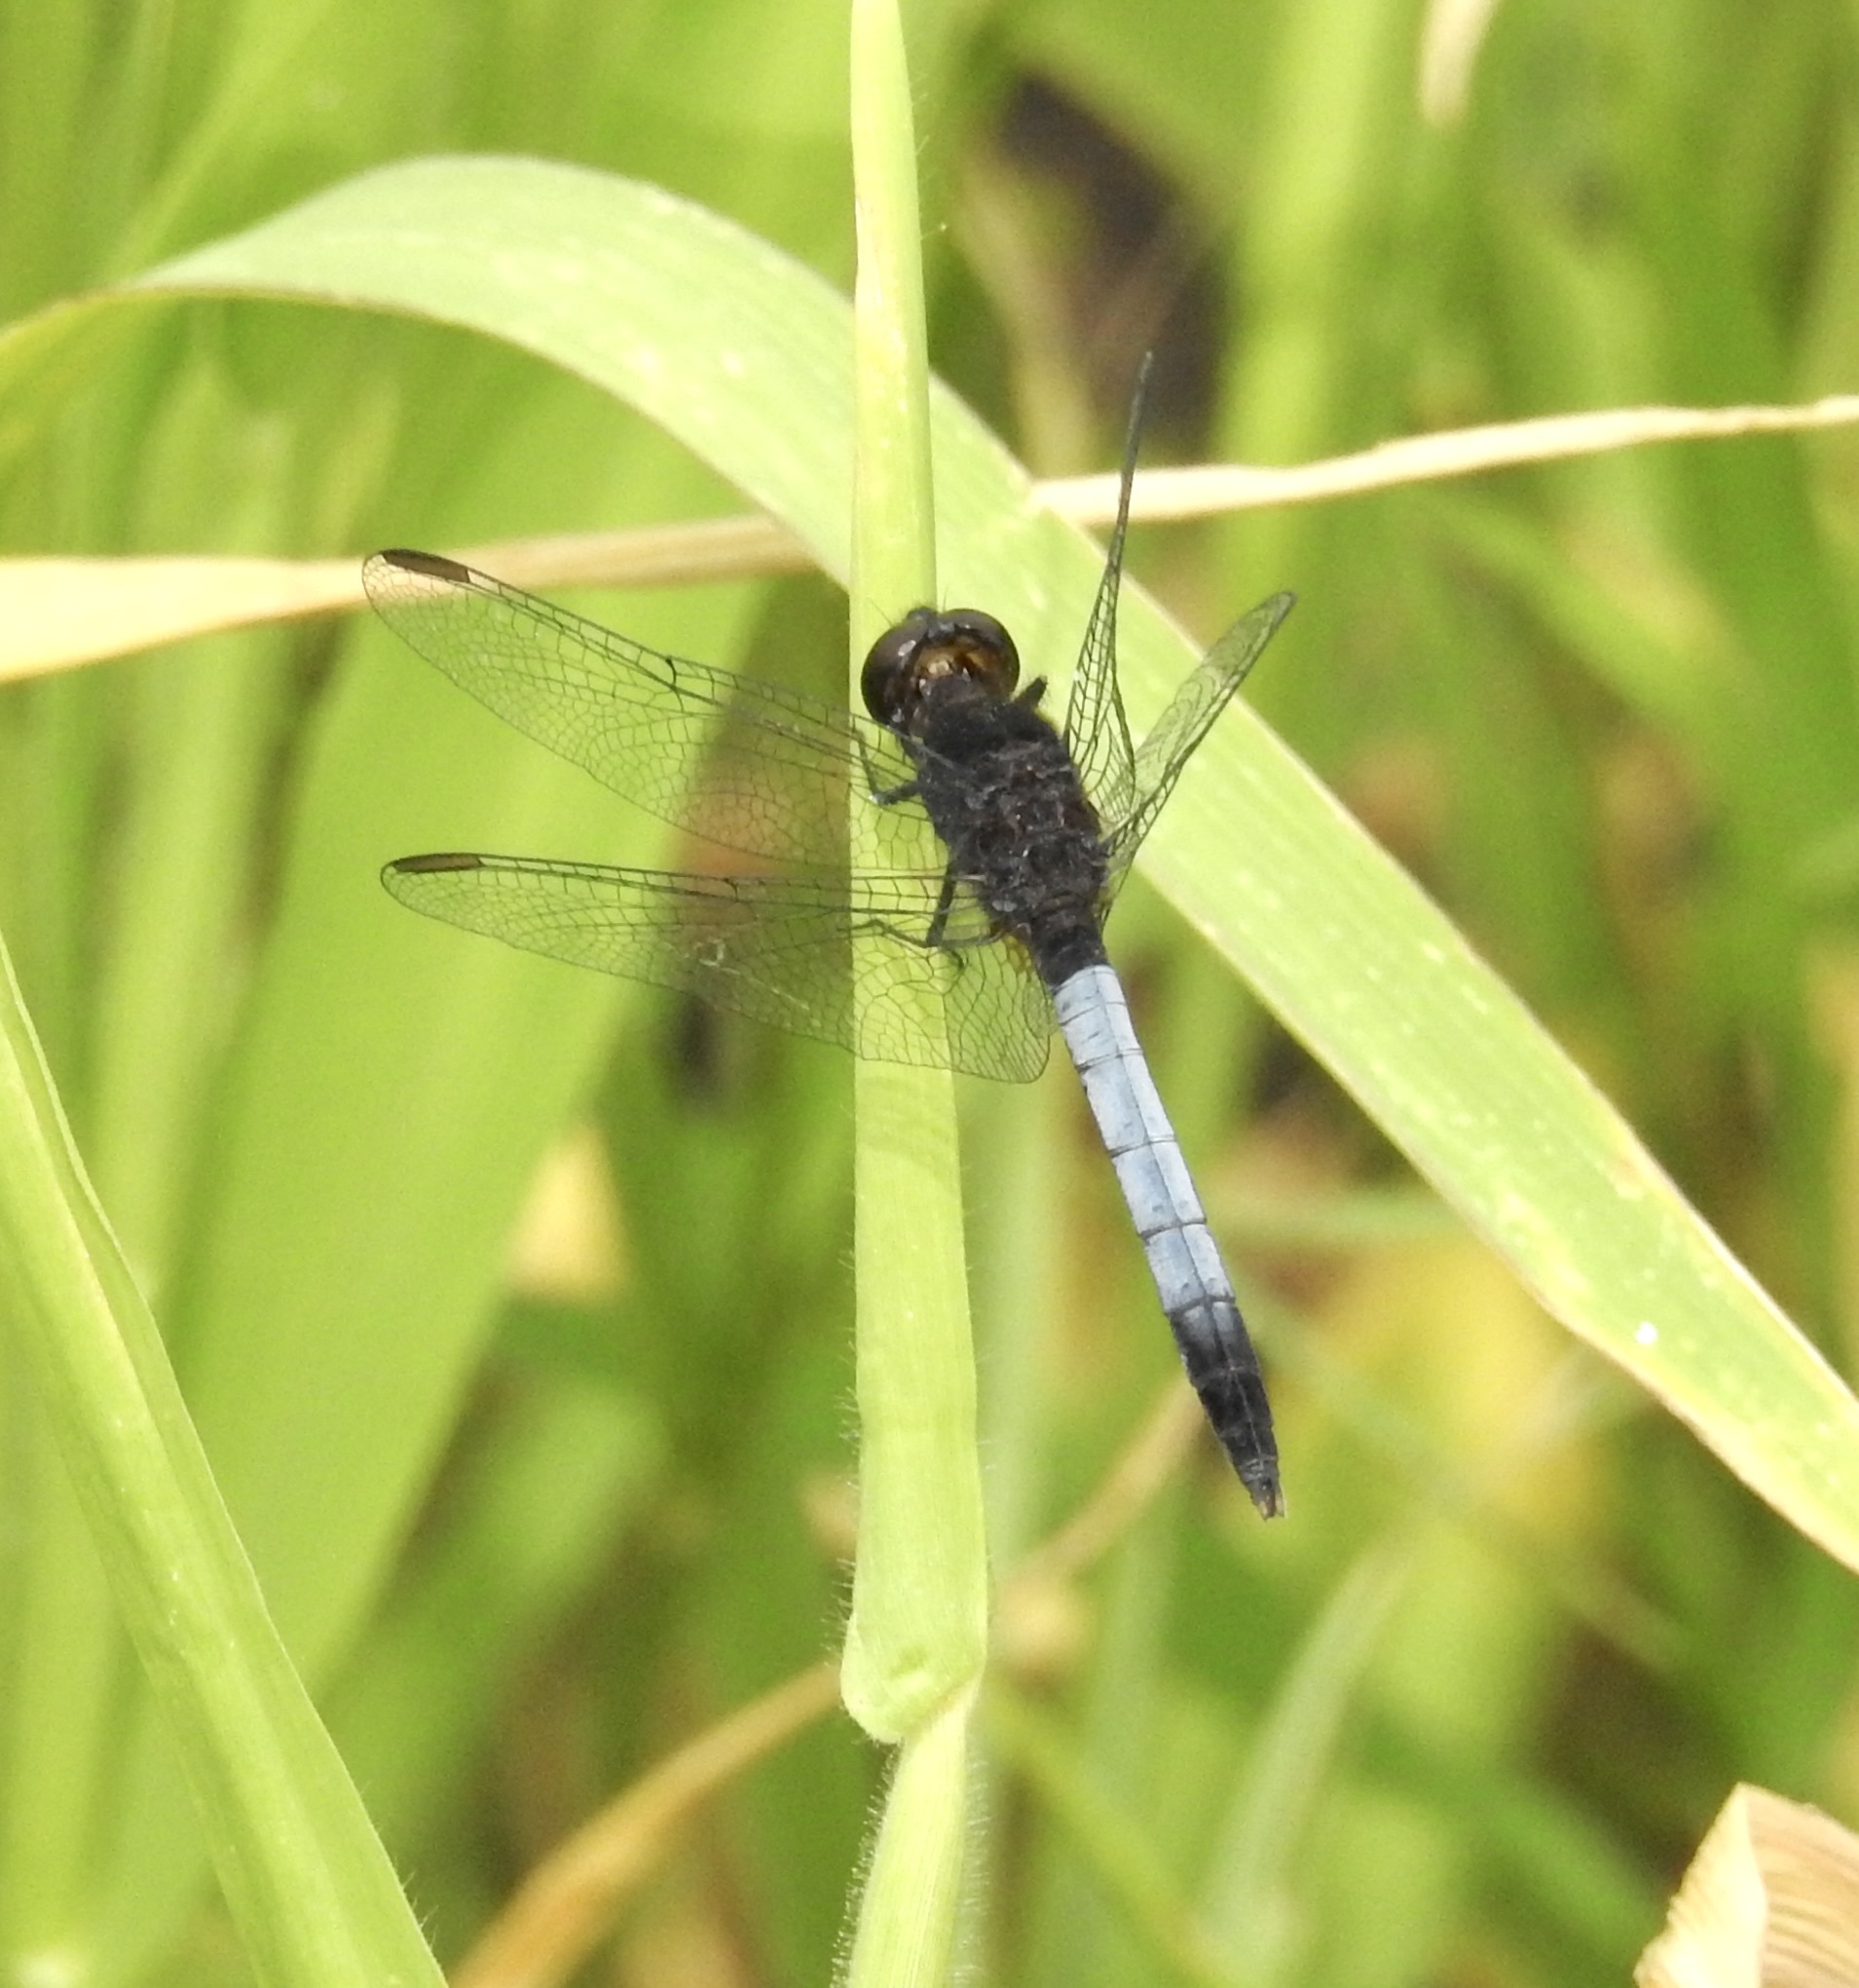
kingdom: Animalia
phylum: Arthropoda
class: Insecta
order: Odonata
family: Libellulidae
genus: Erythrodiplax
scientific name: Erythrodiplax basifusca
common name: Plateau dragonlet
